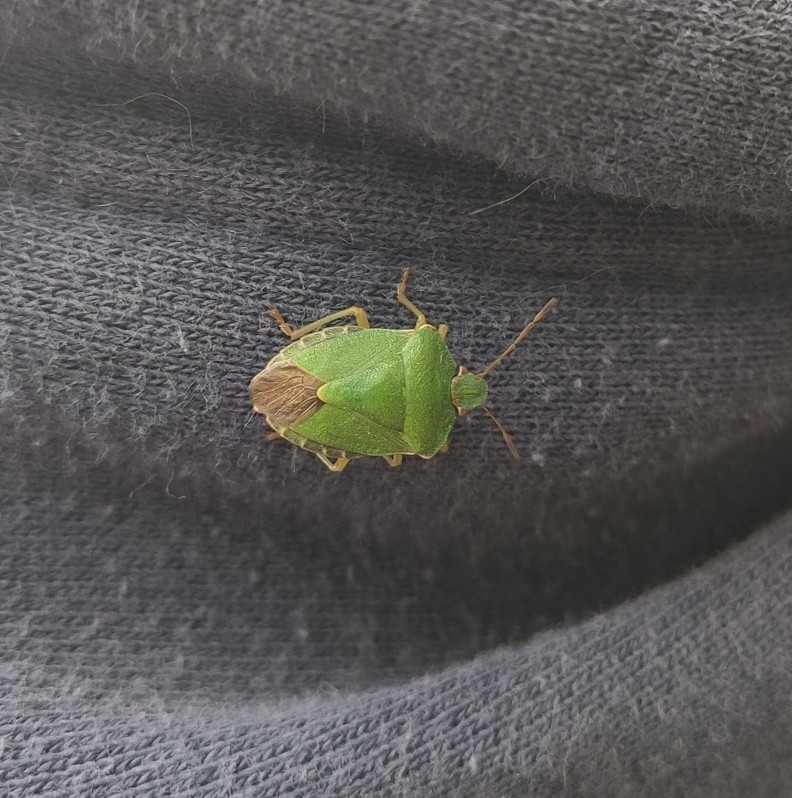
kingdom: Animalia
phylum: Arthropoda
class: Insecta
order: Hemiptera
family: Pentatomidae
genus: Palomena
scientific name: Palomena prasina
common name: Green shieldbug
